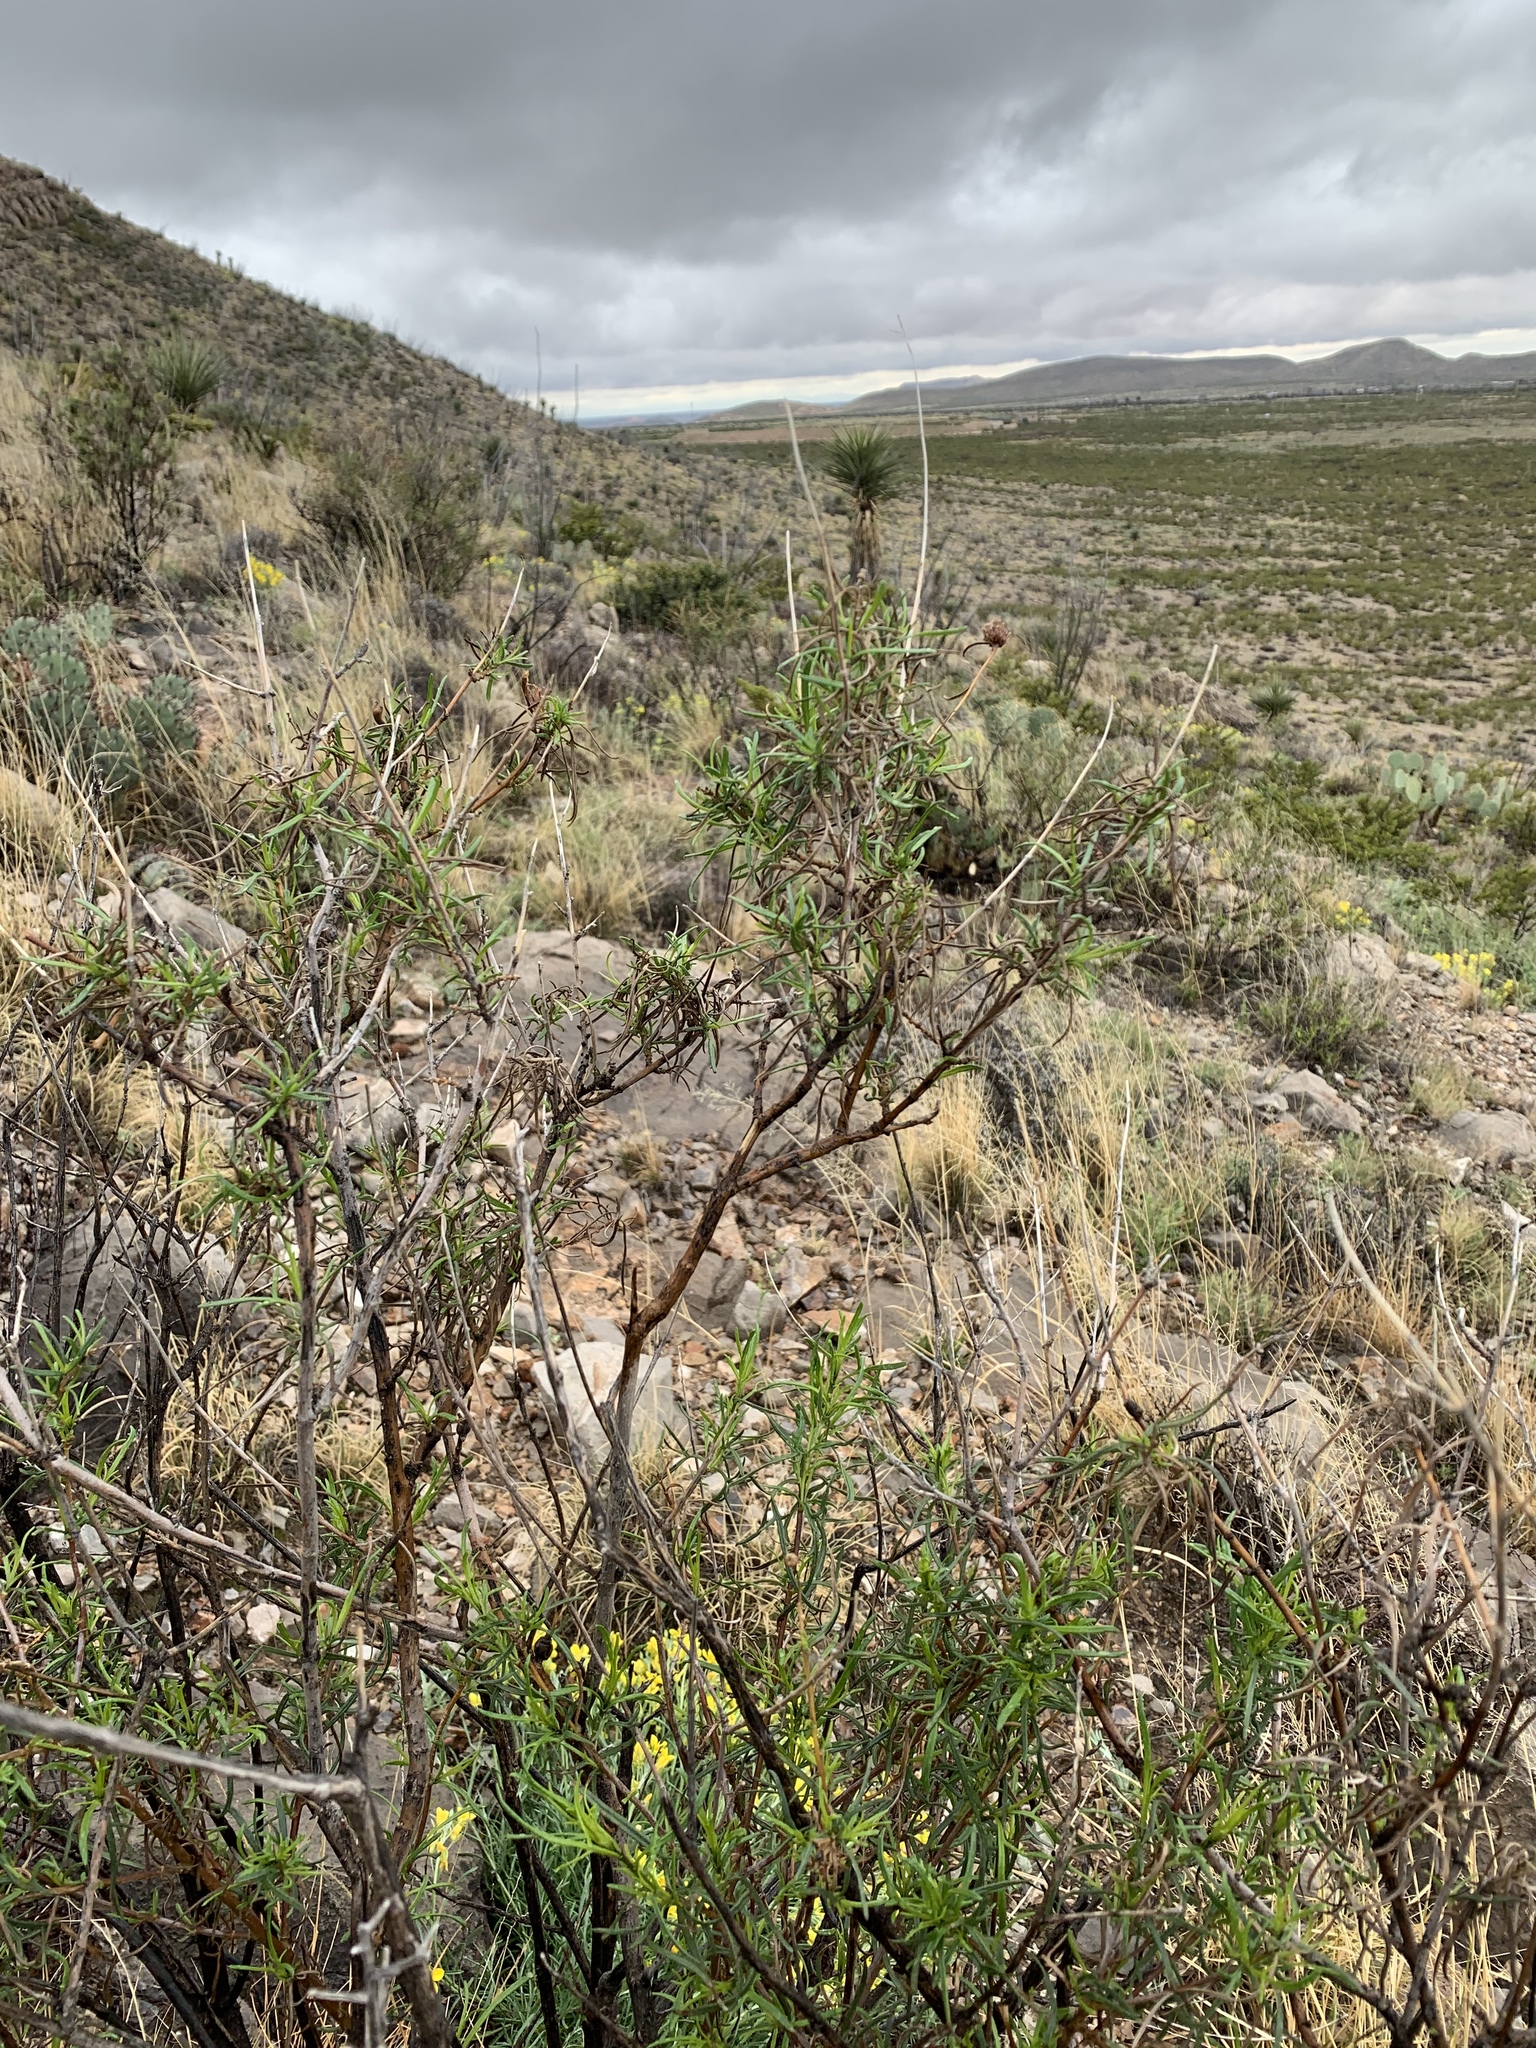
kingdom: Plantae
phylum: Tracheophyta
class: Magnoliopsida
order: Asterales
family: Asteraceae
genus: Sidneya
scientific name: Sidneya tenuifolia
